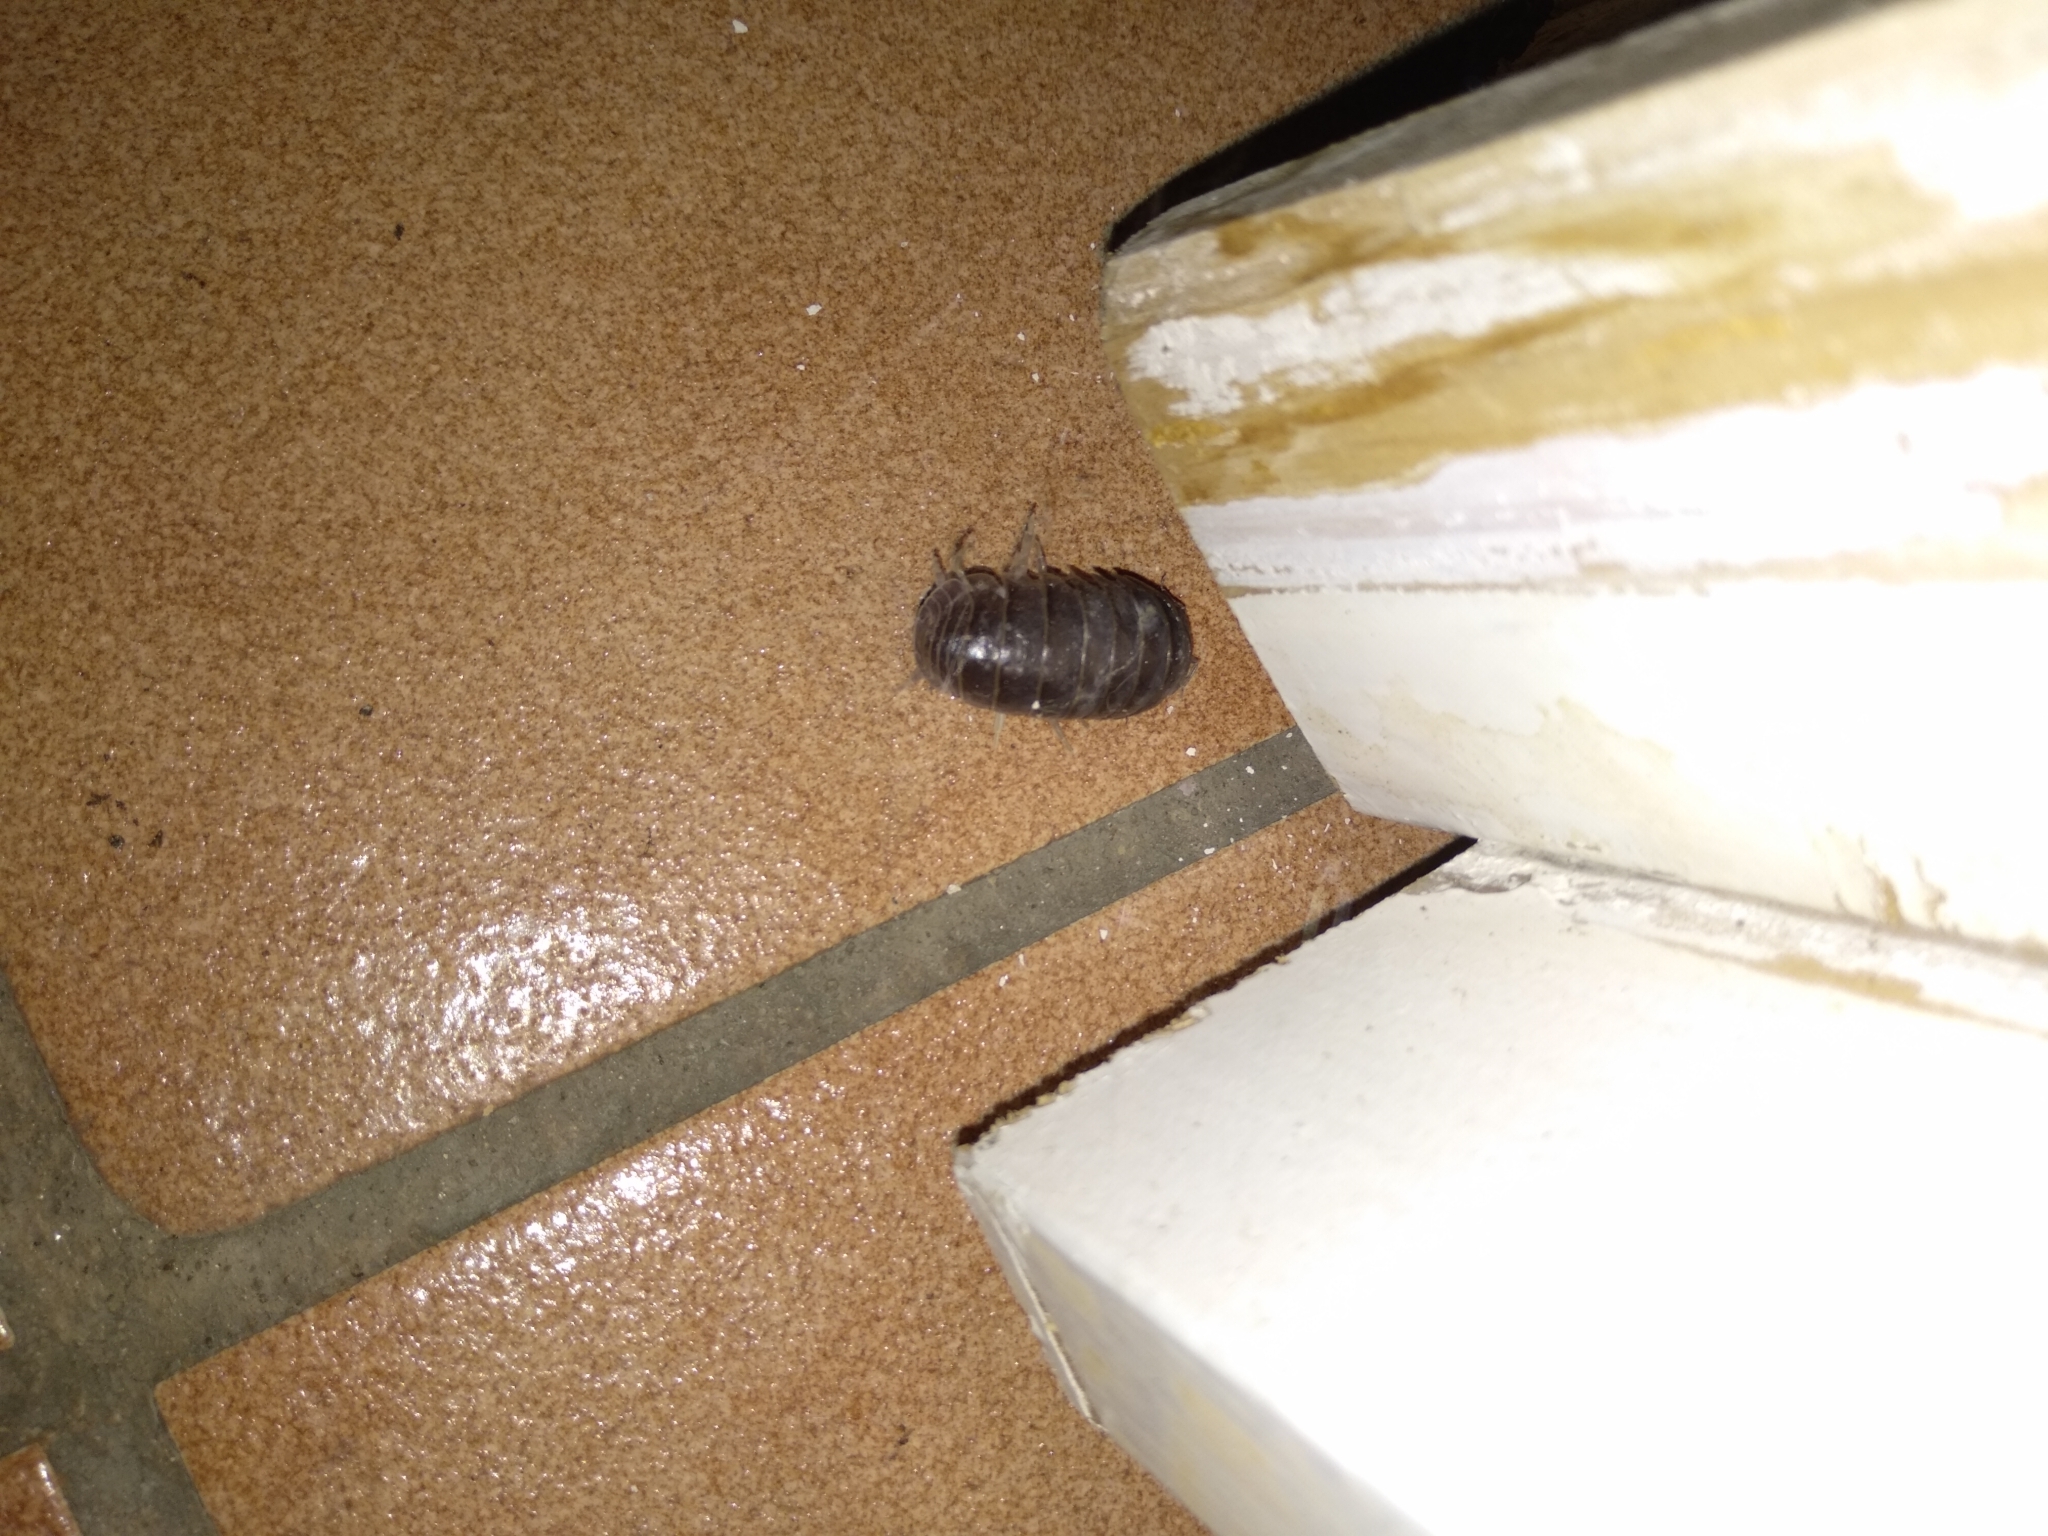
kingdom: Animalia
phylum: Arthropoda
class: Malacostraca
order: Isopoda
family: Armadillidae
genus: Armadillo
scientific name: Armadillo officinalis
